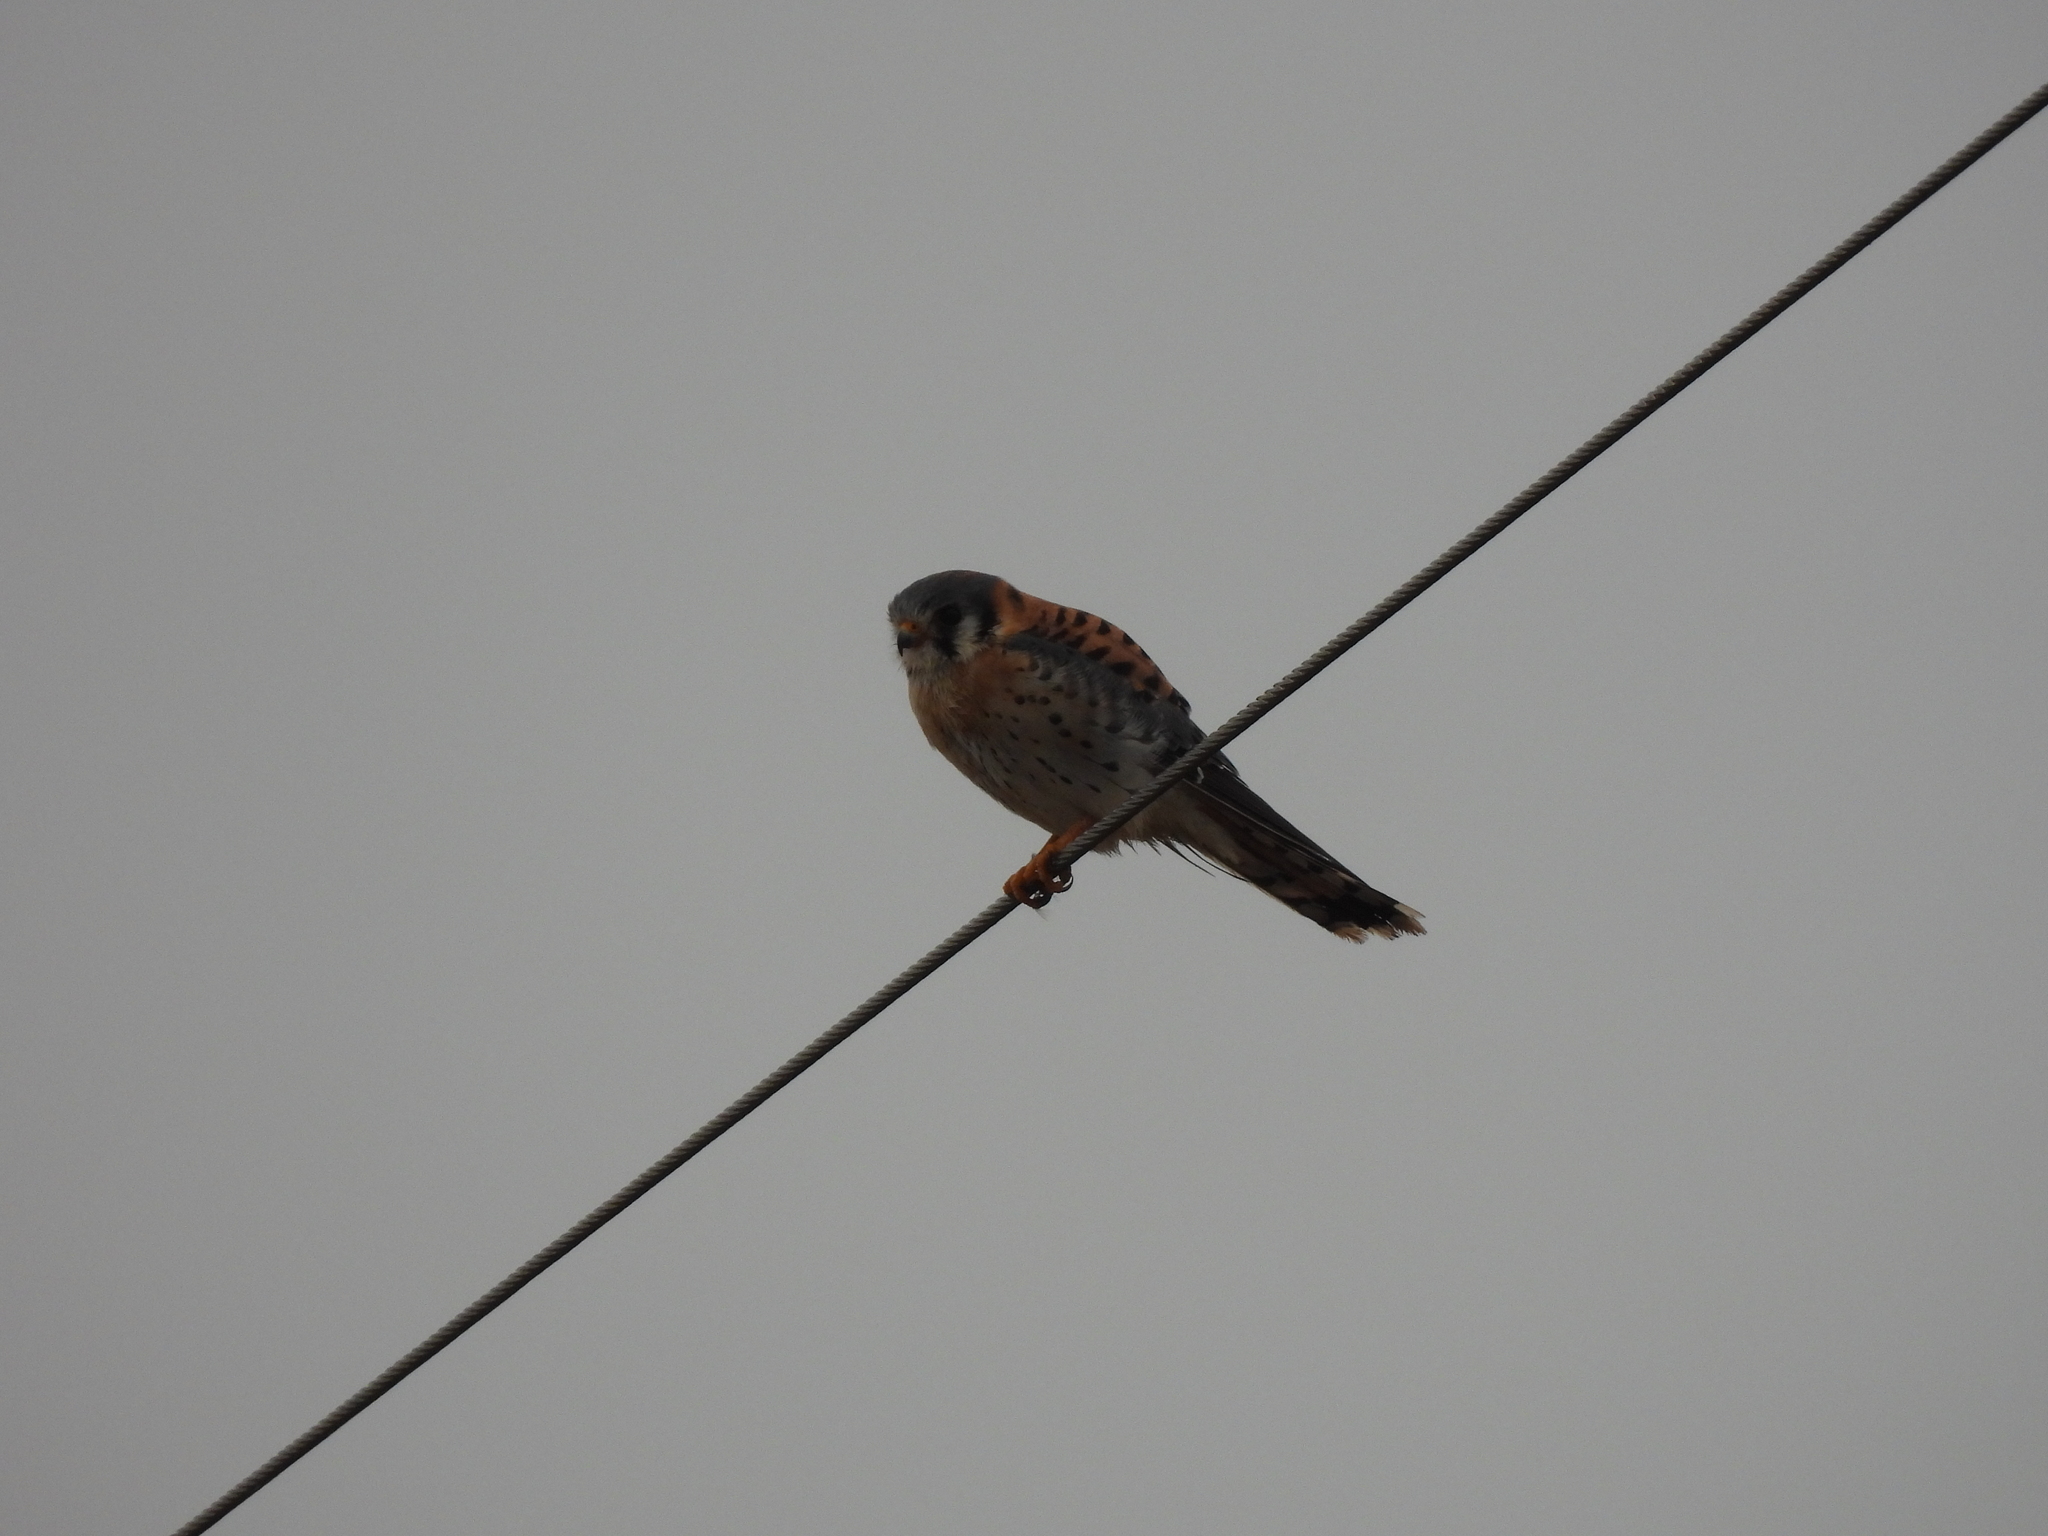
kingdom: Animalia
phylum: Chordata
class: Aves
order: Falconiformes
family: Falconidae
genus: Falco
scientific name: Falco sparverius
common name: American kestrel
